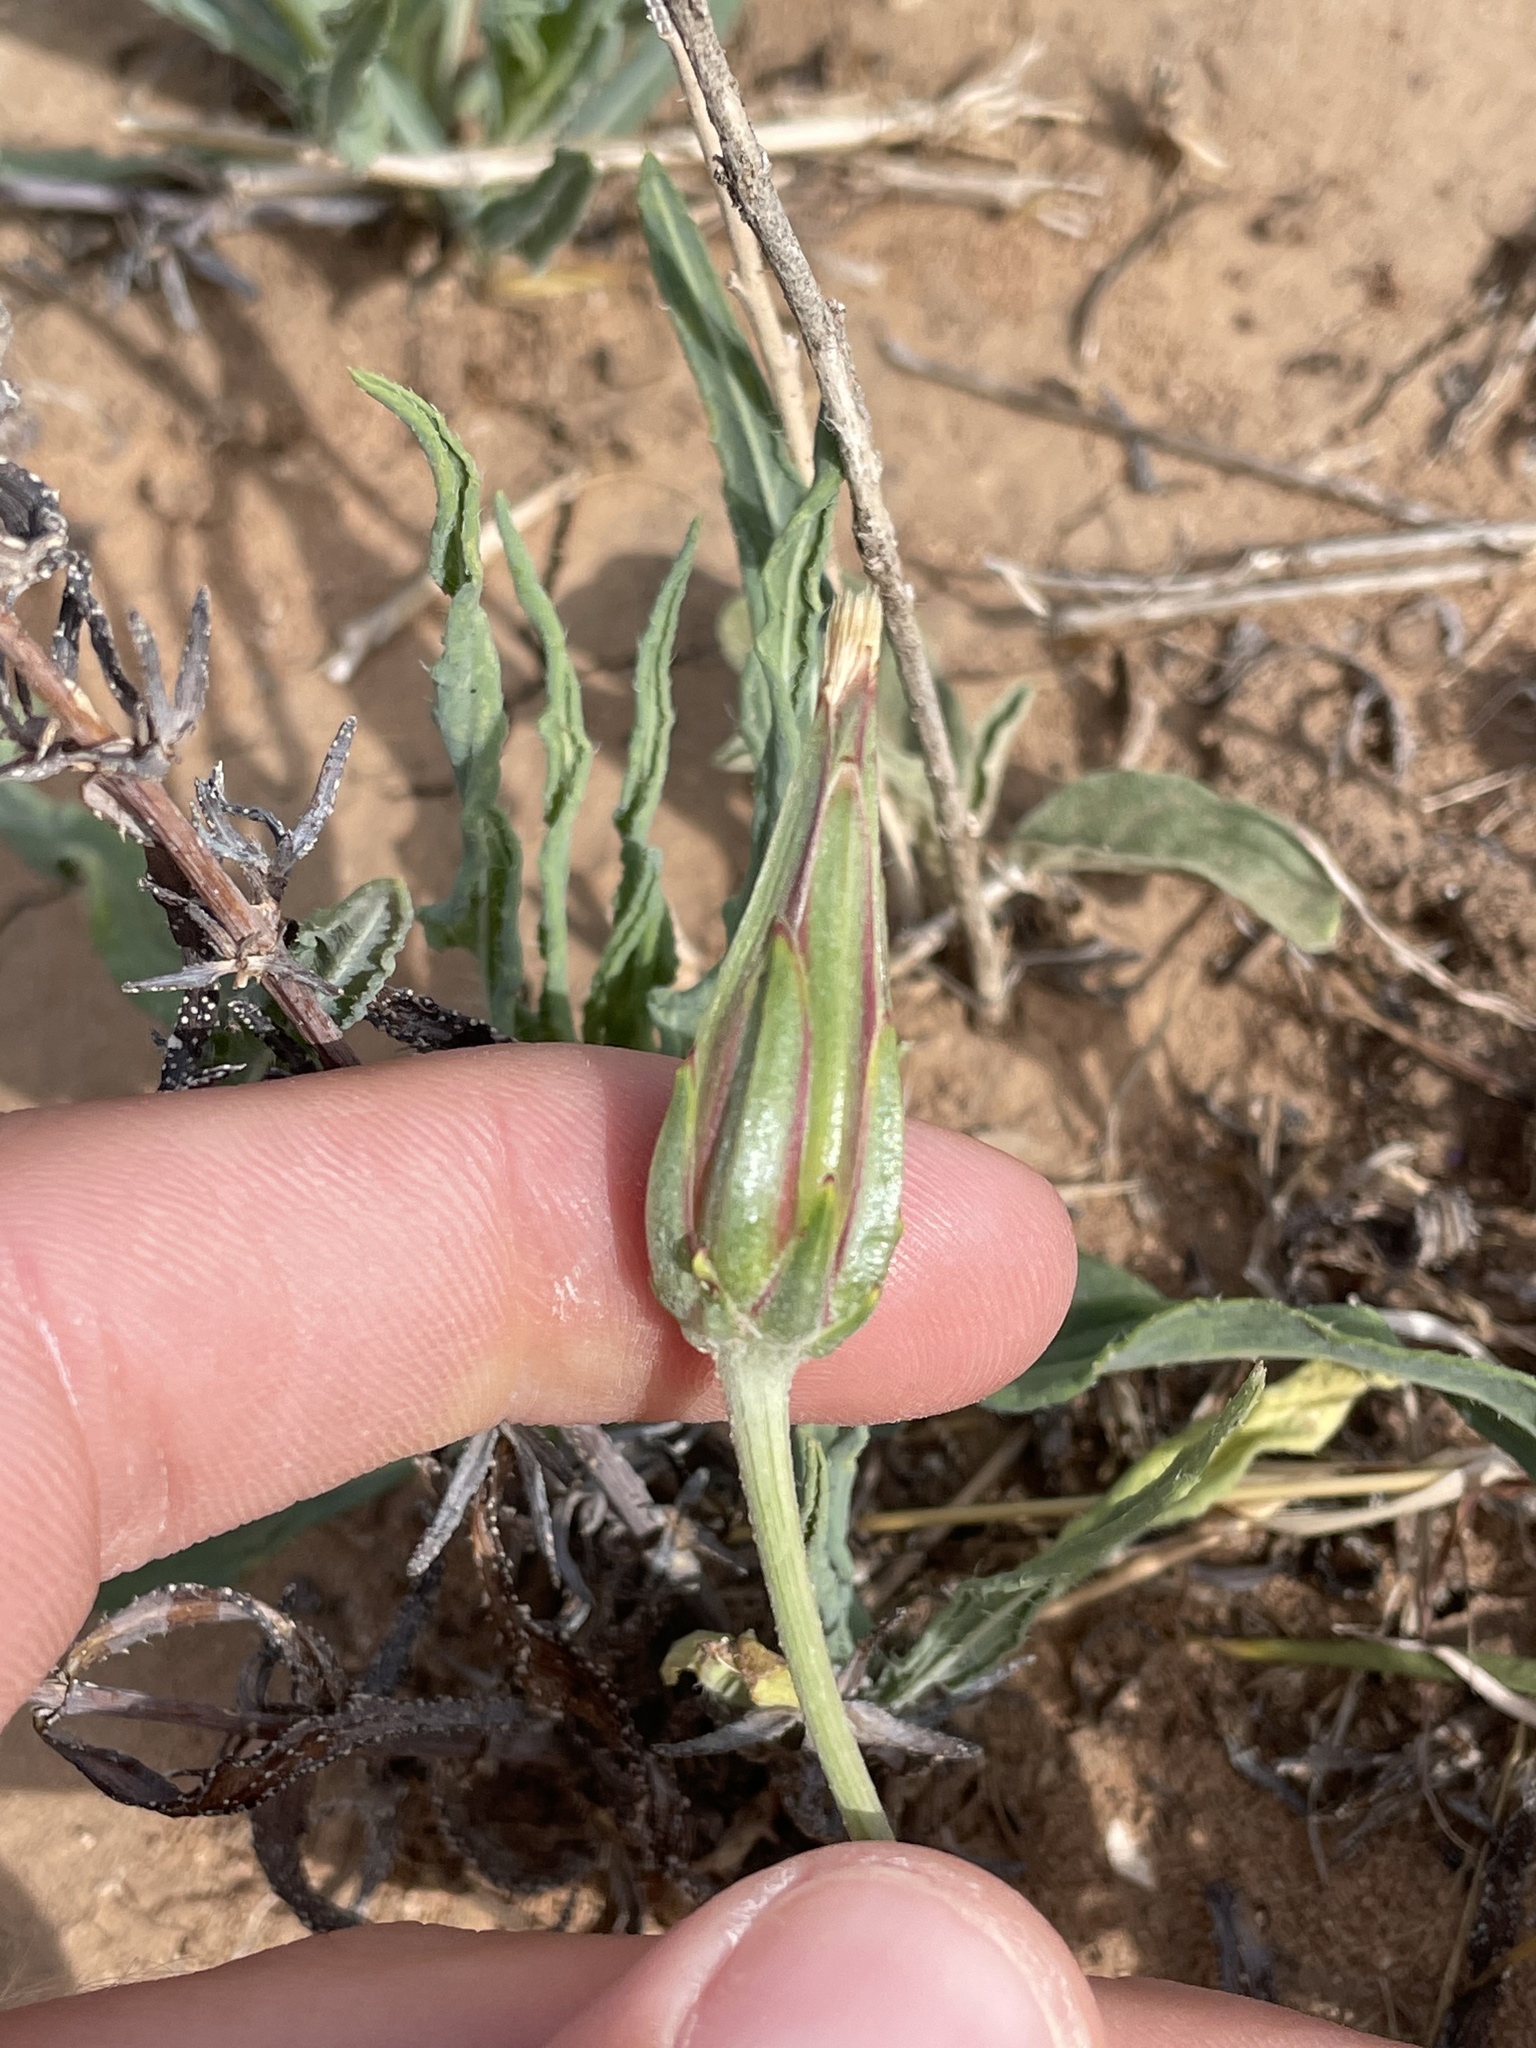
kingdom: Plantae
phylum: Tracheophyta
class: Magnoliopsida
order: Asterales
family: Asteraceae
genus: Scorzonera
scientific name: Scorzonera laciniata
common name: Cutleaf vipergrass
